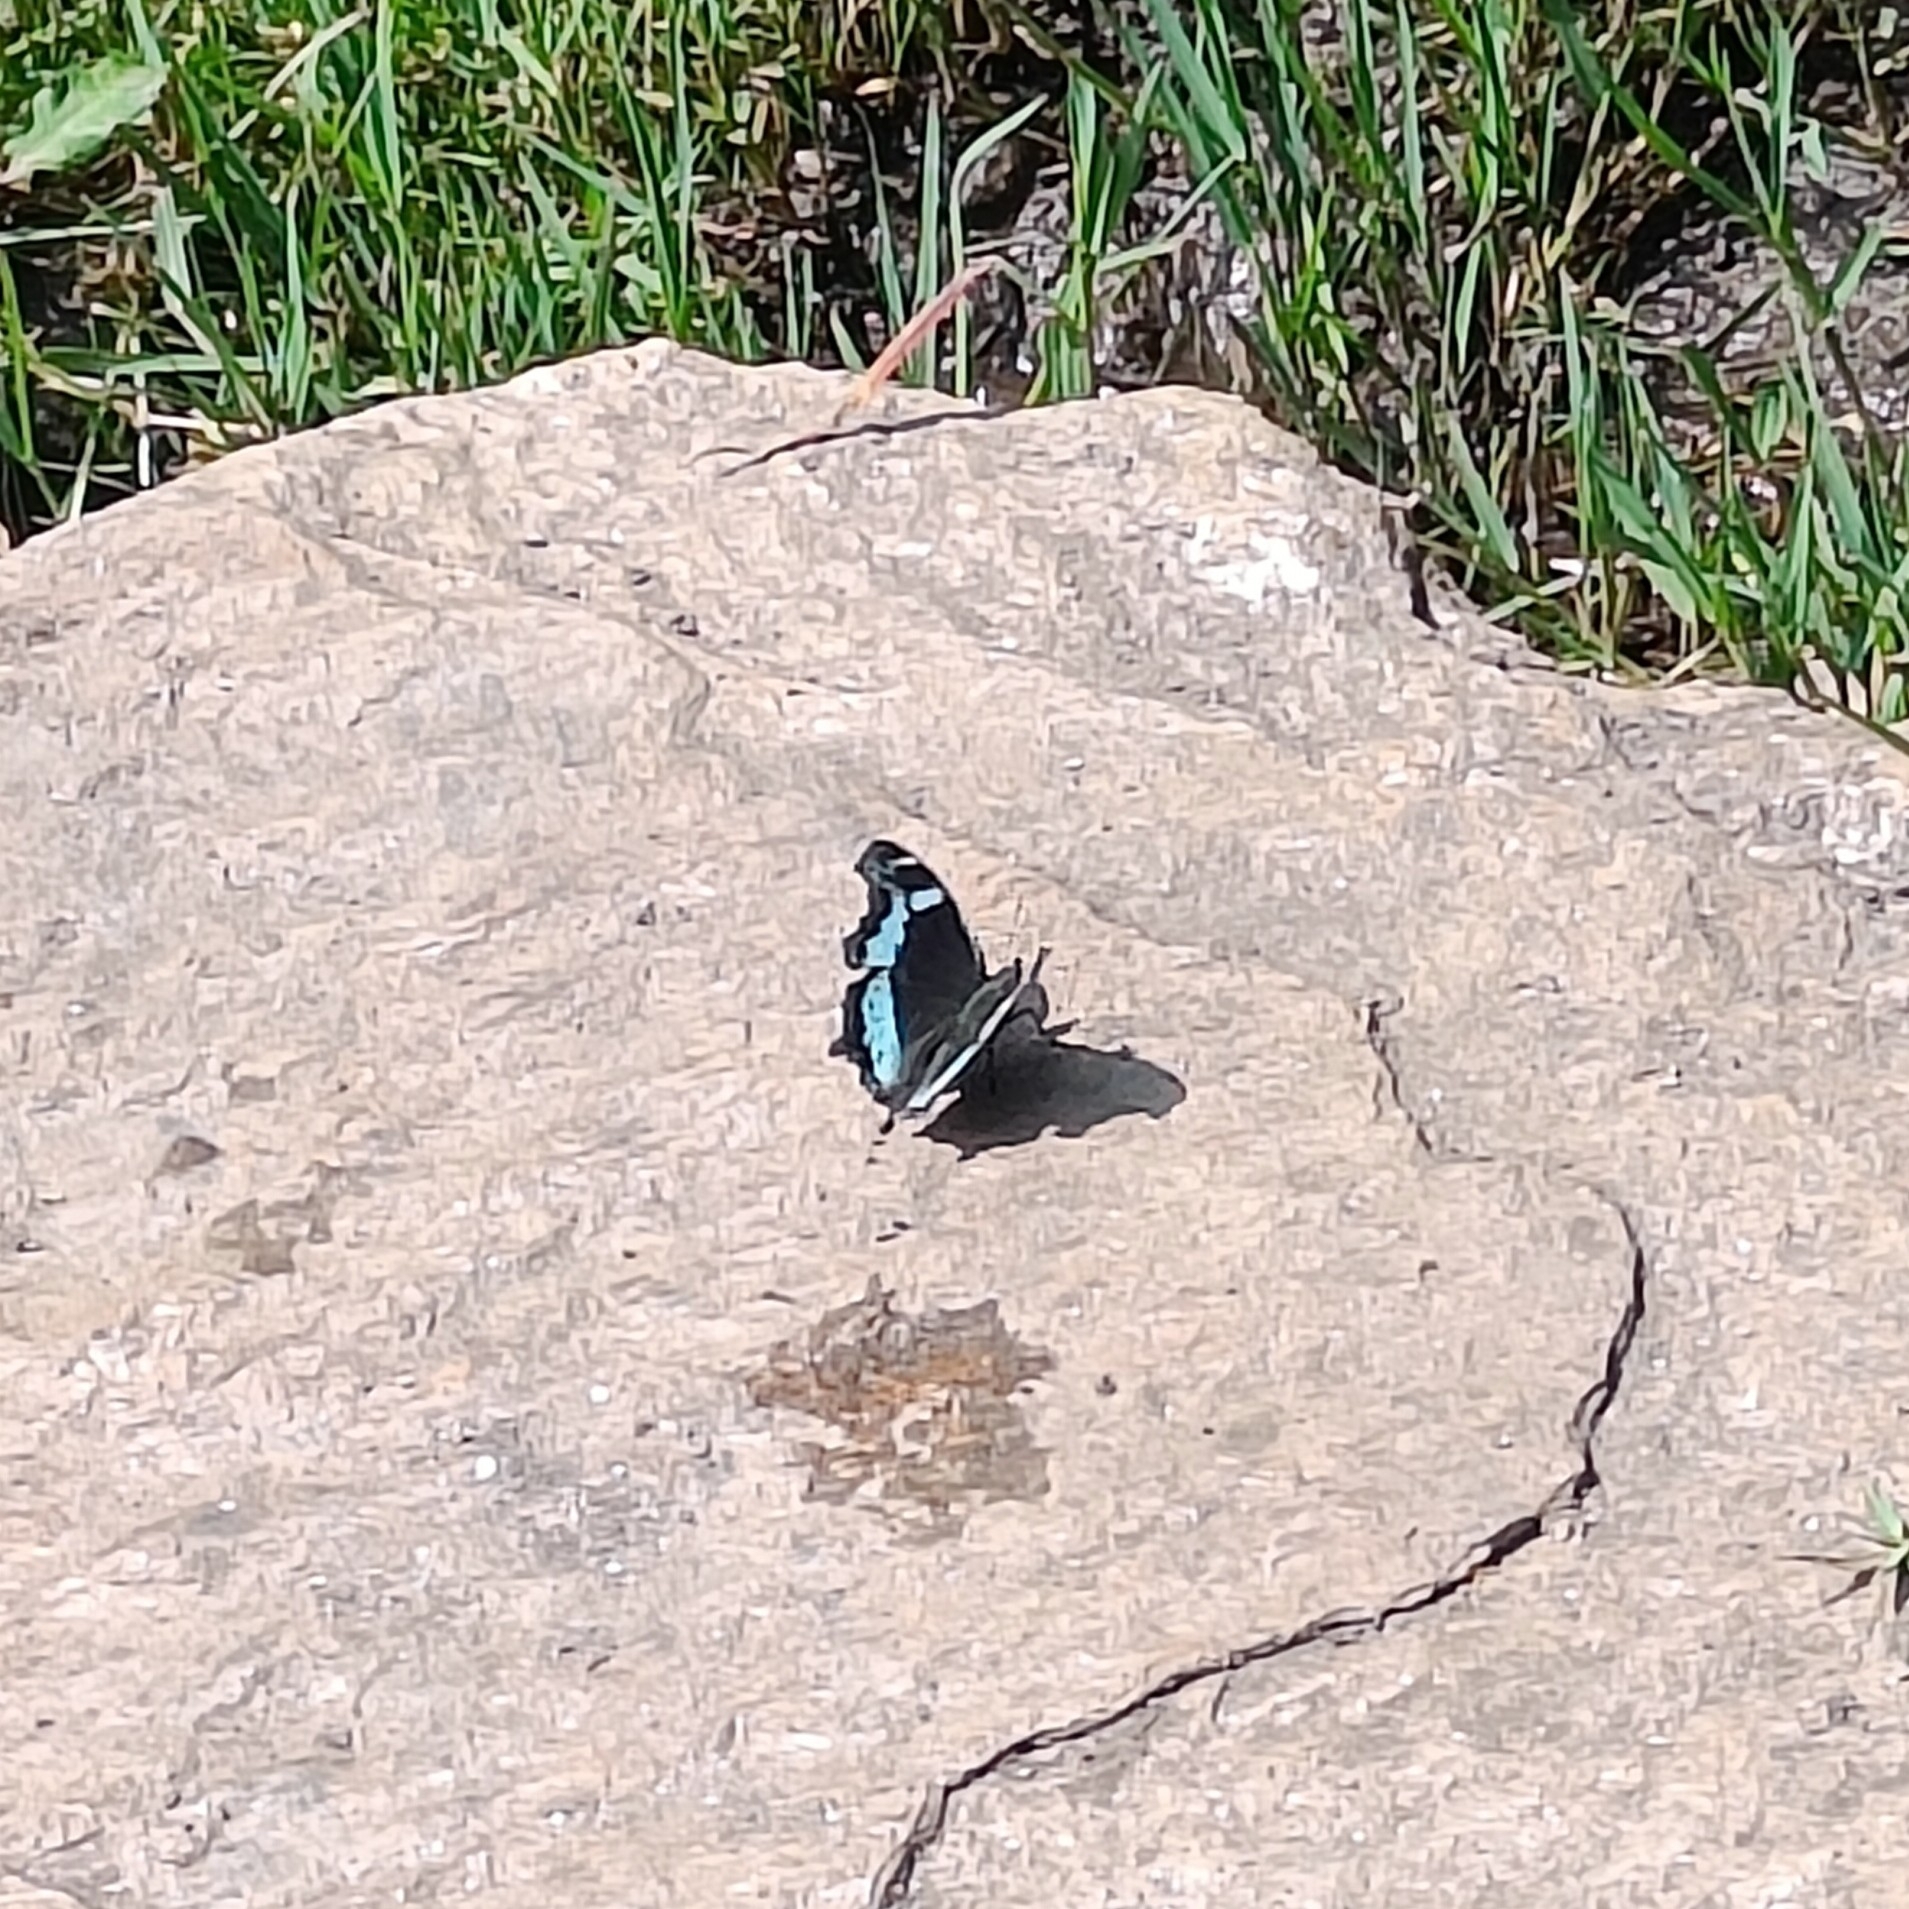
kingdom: Animalia
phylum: Arthropoda
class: Insecta
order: Lepidoptera
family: Nymphalidae
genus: Vanessa
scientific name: Vanessa Kaniska canace
